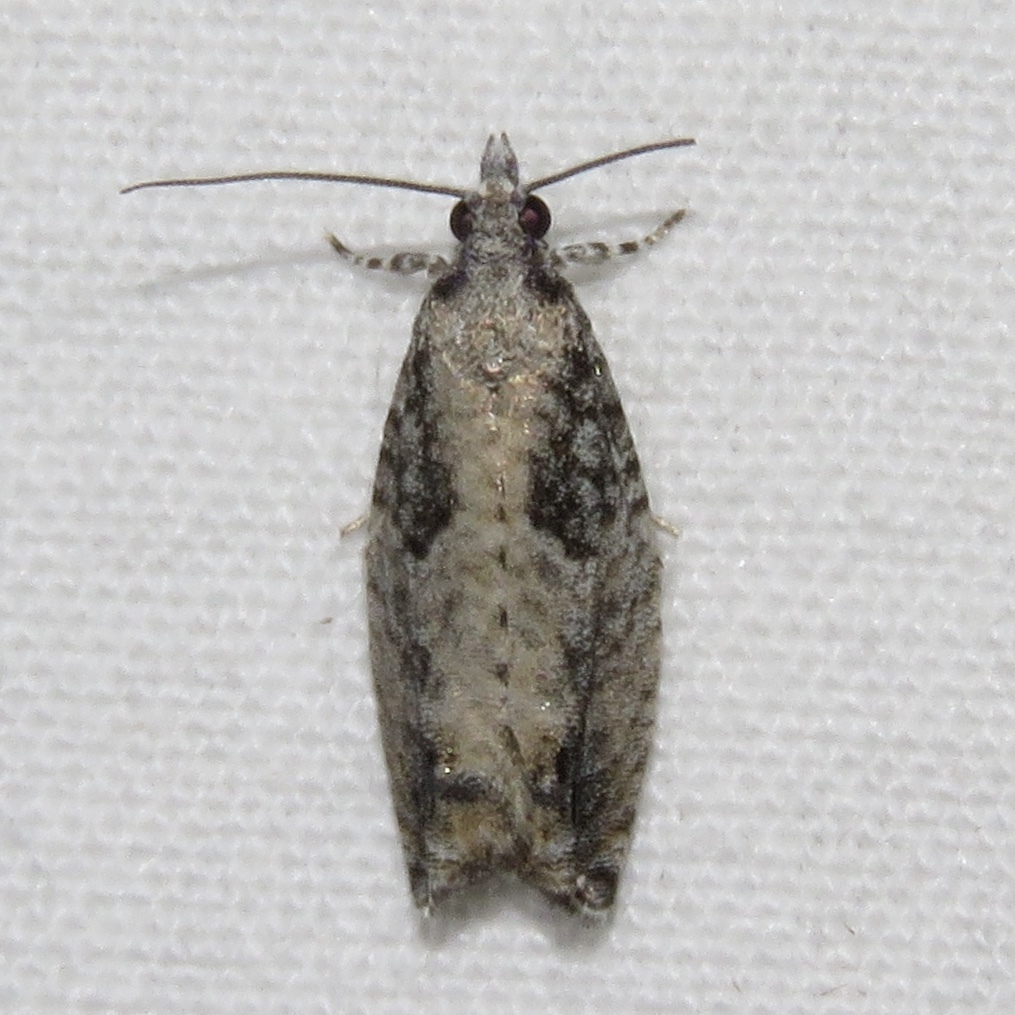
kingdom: Animalia
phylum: Arthropoda
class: Insecta
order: Lepidoptera
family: Tortricidae
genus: Epinotia
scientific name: Epinotia cinereana
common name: Grey aspen bell
